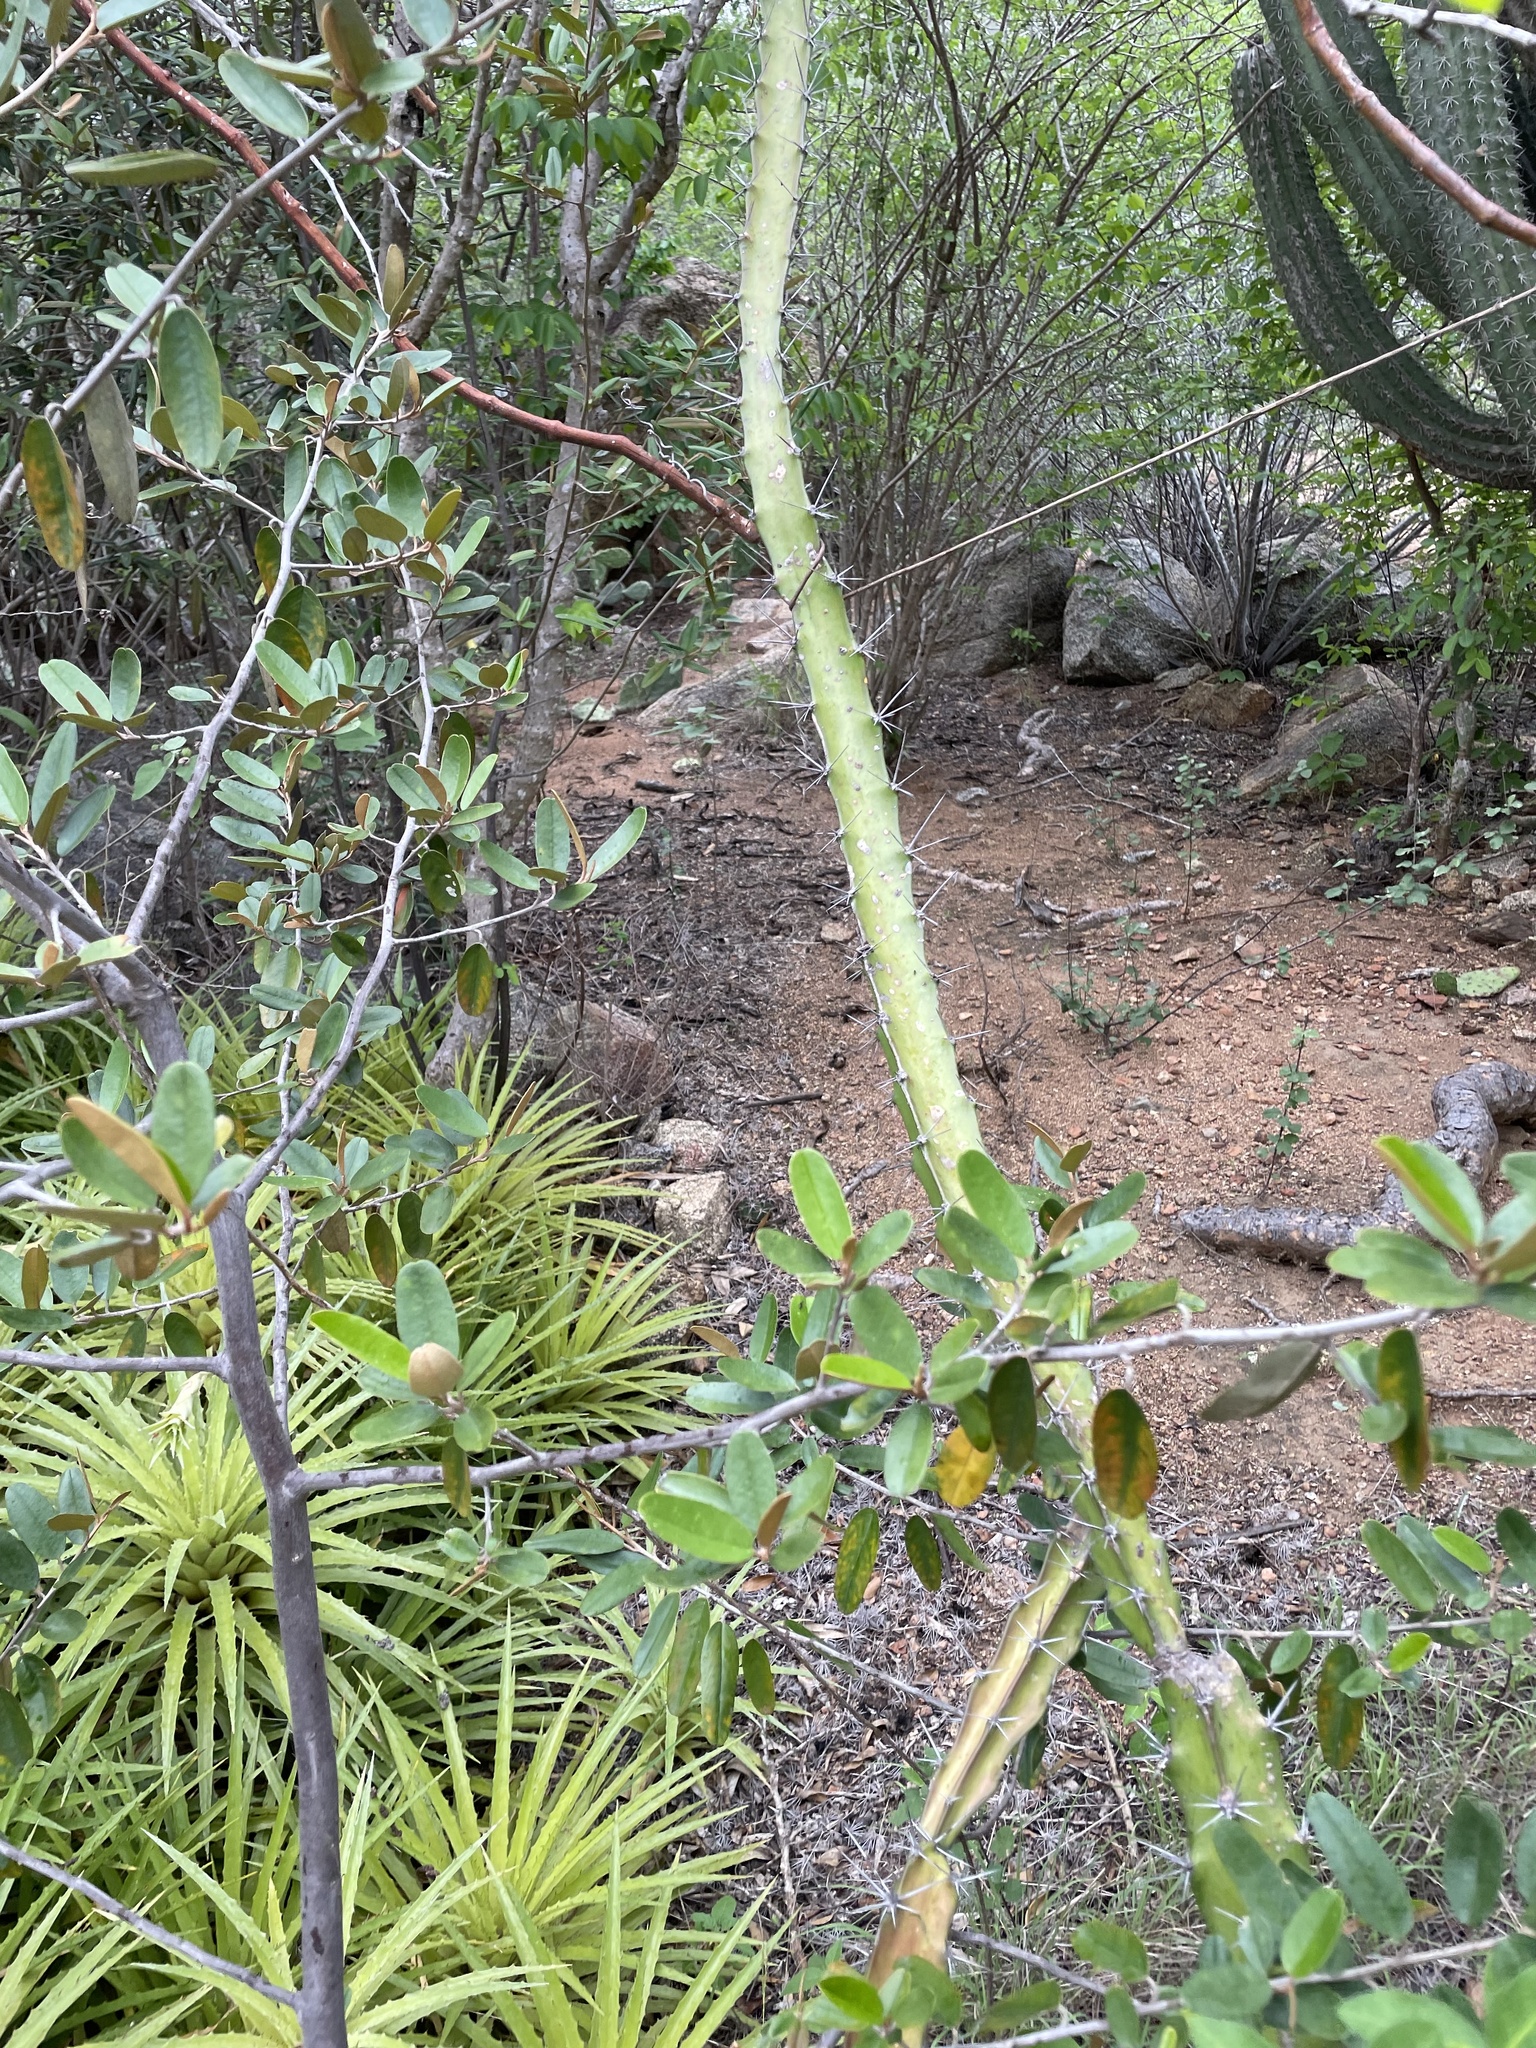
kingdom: Plantae
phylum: Tracheophyta
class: Liliopsida
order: Poales
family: Bromeliaceae
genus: Bromelia
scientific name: Bromelia humilis
